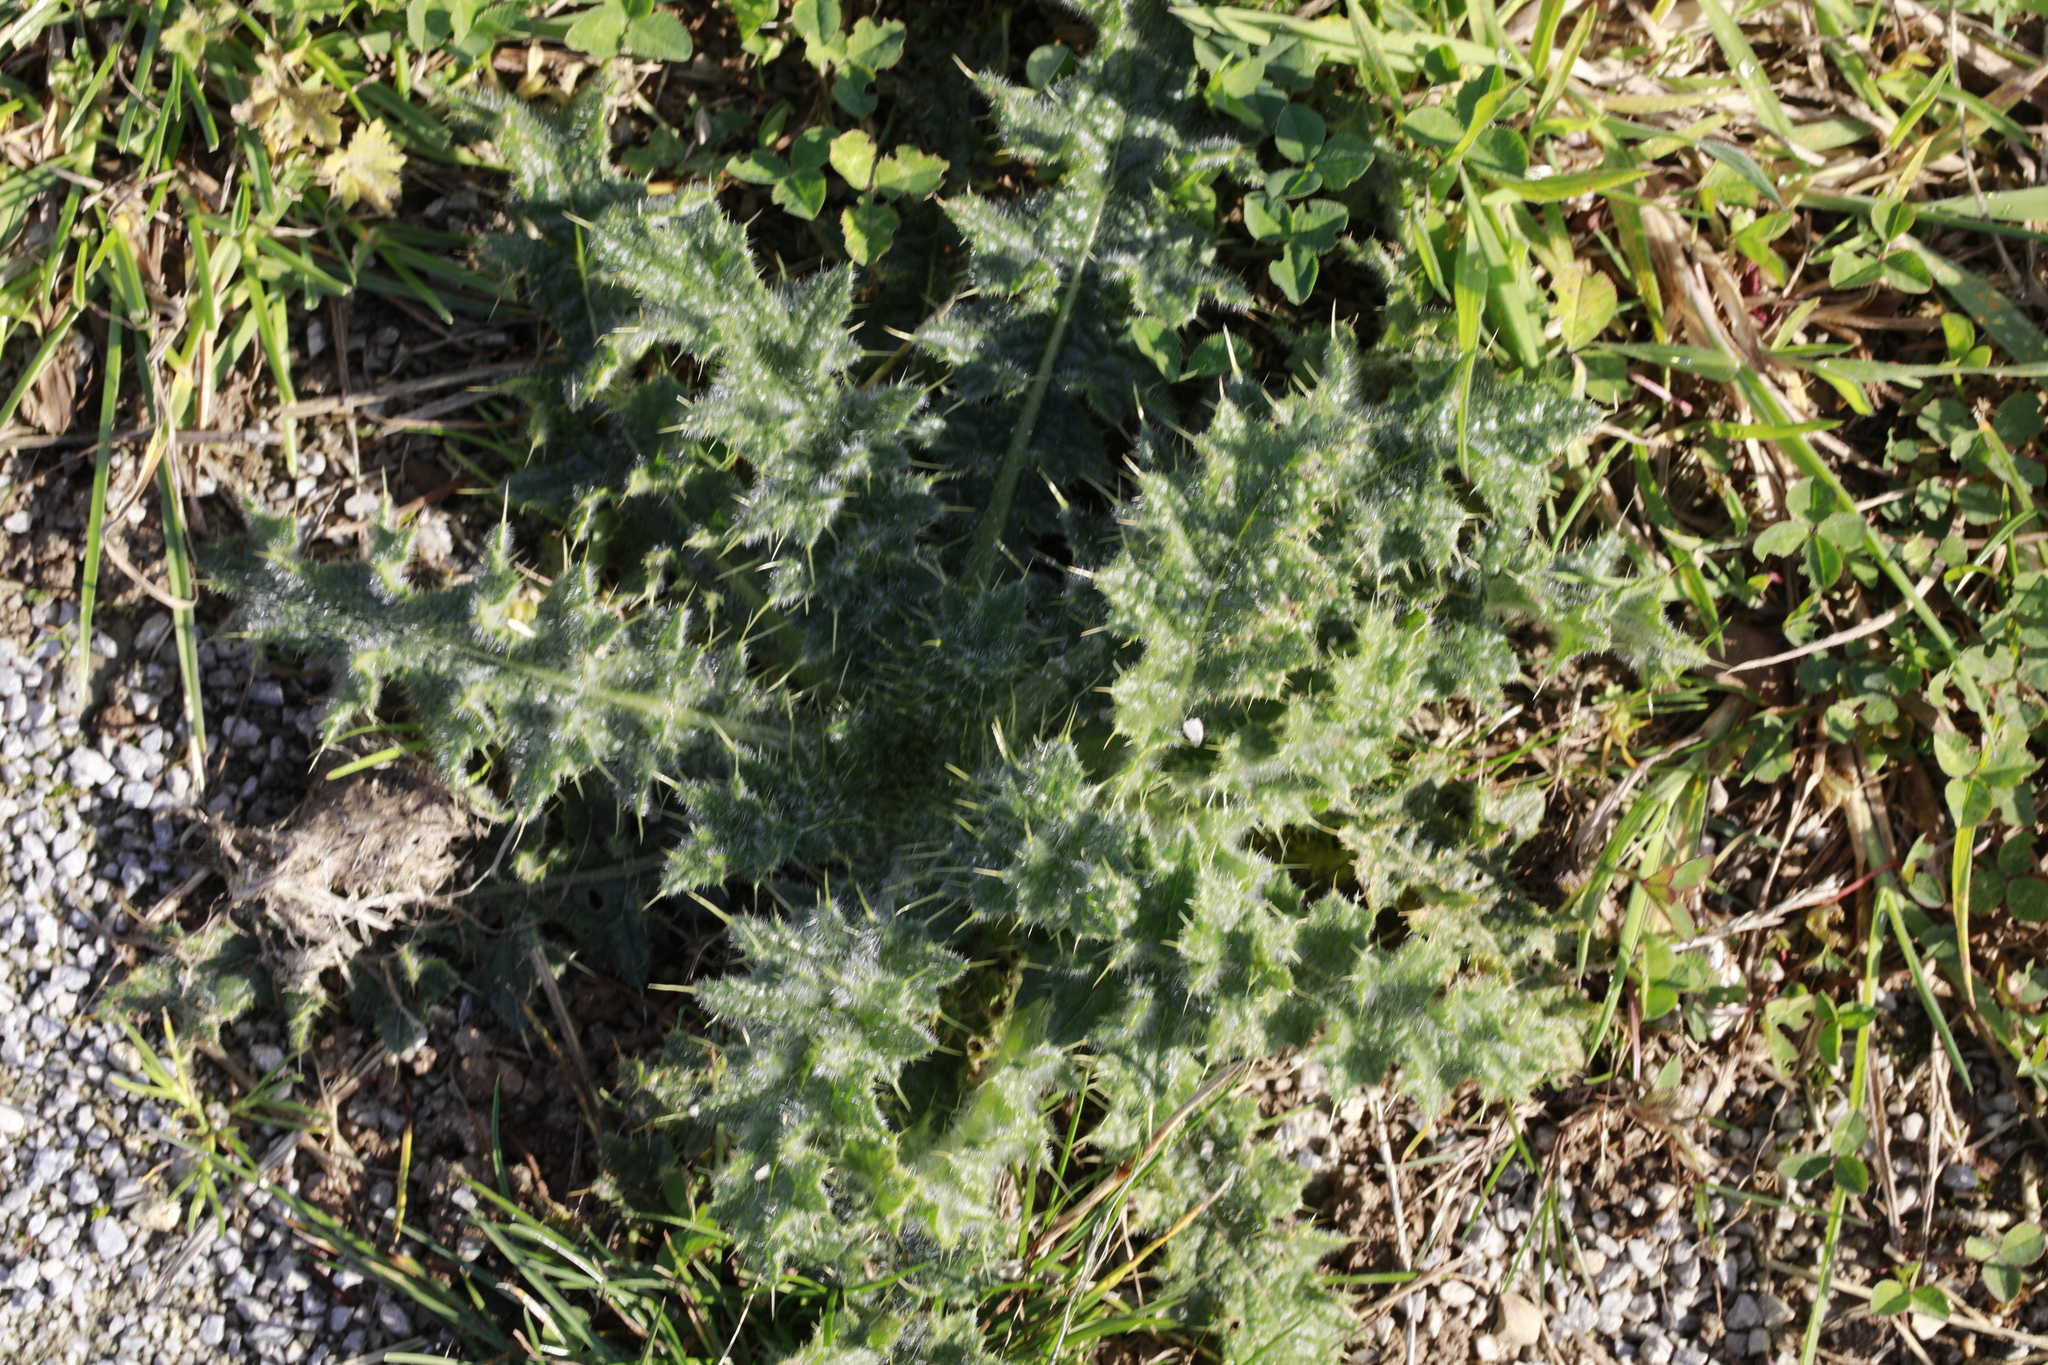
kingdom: Plantae
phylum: Tracheophyta
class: Magnoliopsida
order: Asterales
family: Asteraceae
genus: Cirsium
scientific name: Cirsium vulgare
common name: Bull thistle
